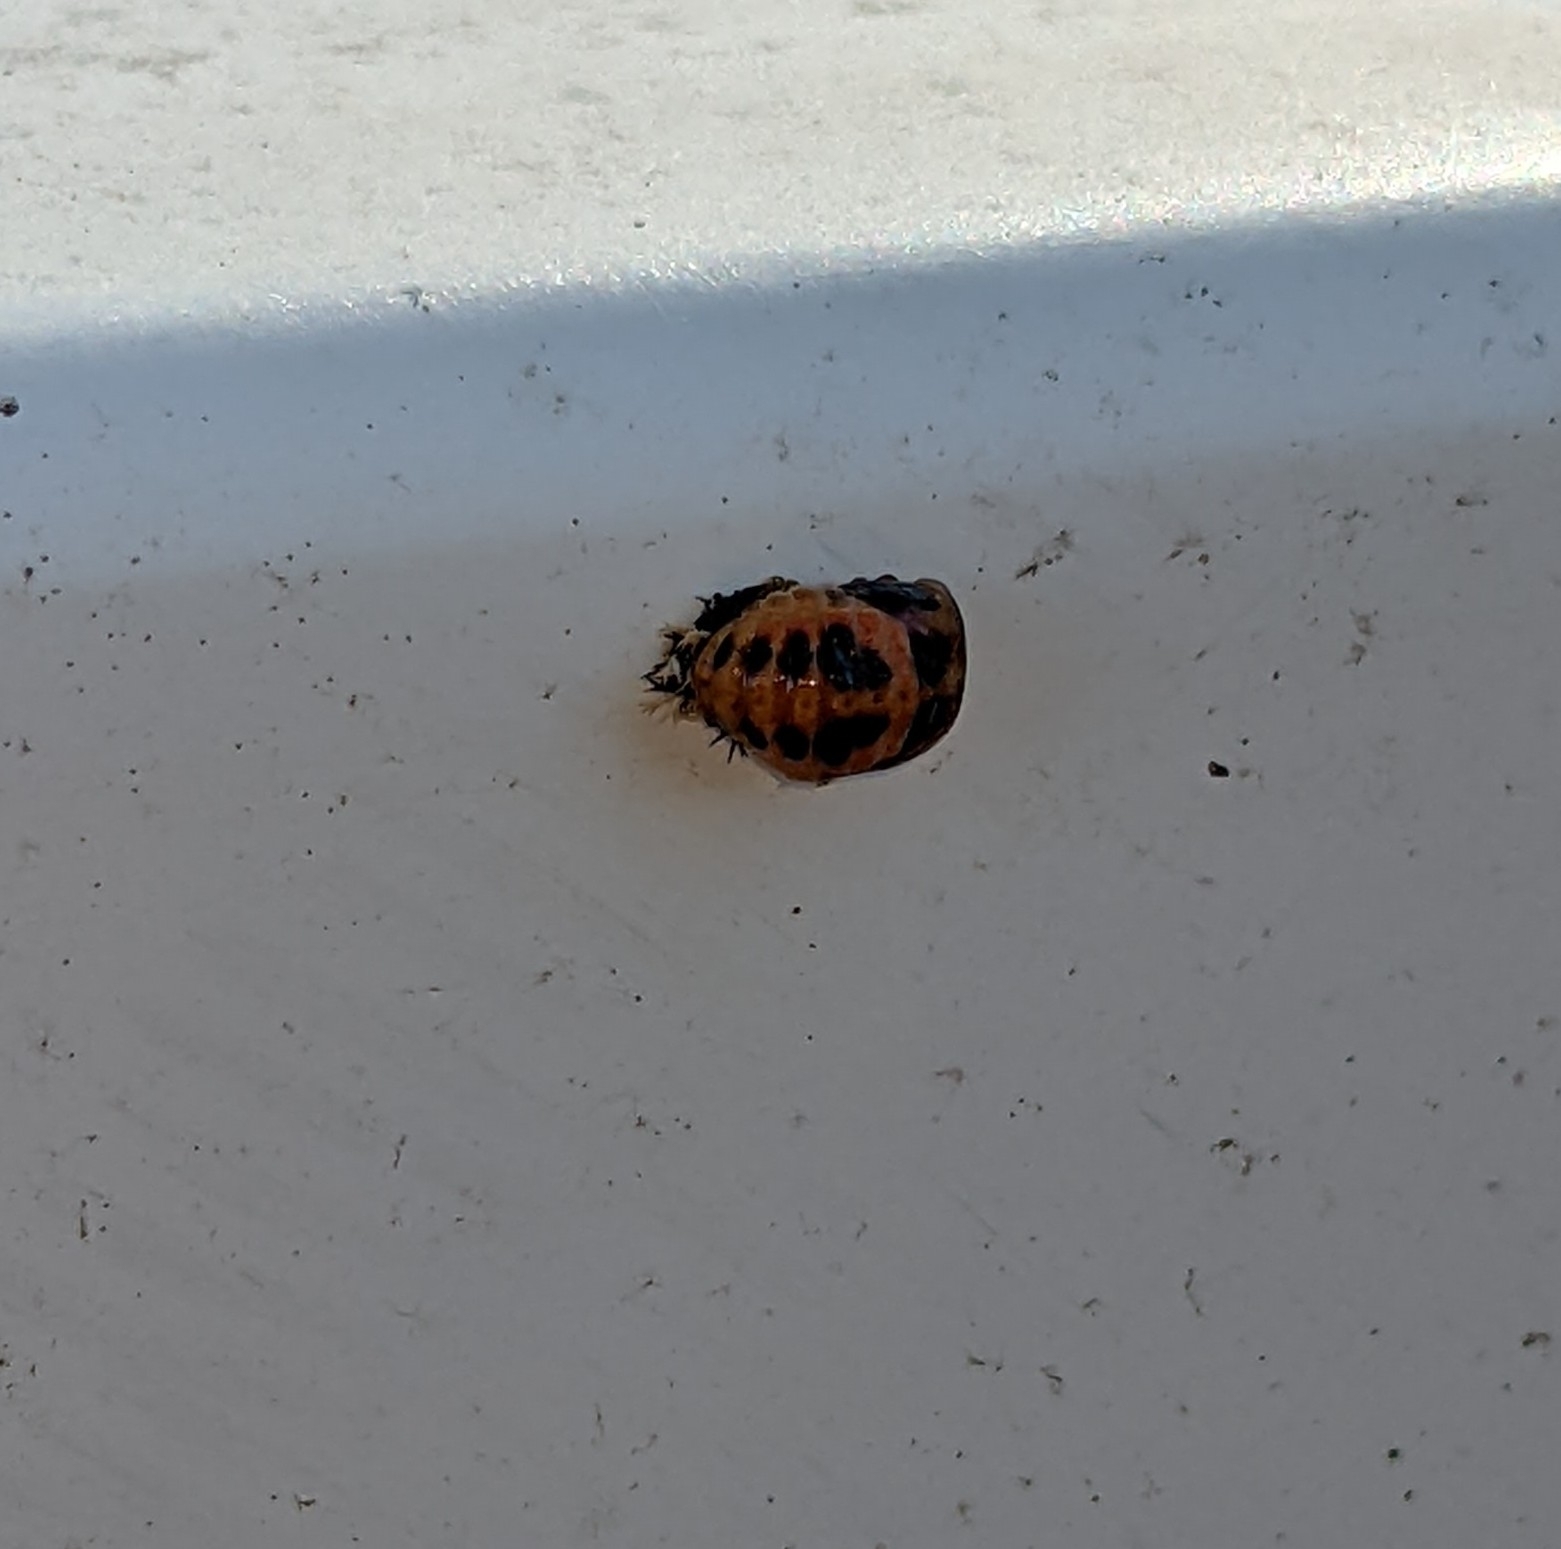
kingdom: Animalia
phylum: Arthropoda
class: Insecta
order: Coleoptera
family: Coccinellidae
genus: Harmonia
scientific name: Harmonia axyridis
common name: Harlequin ladybird
